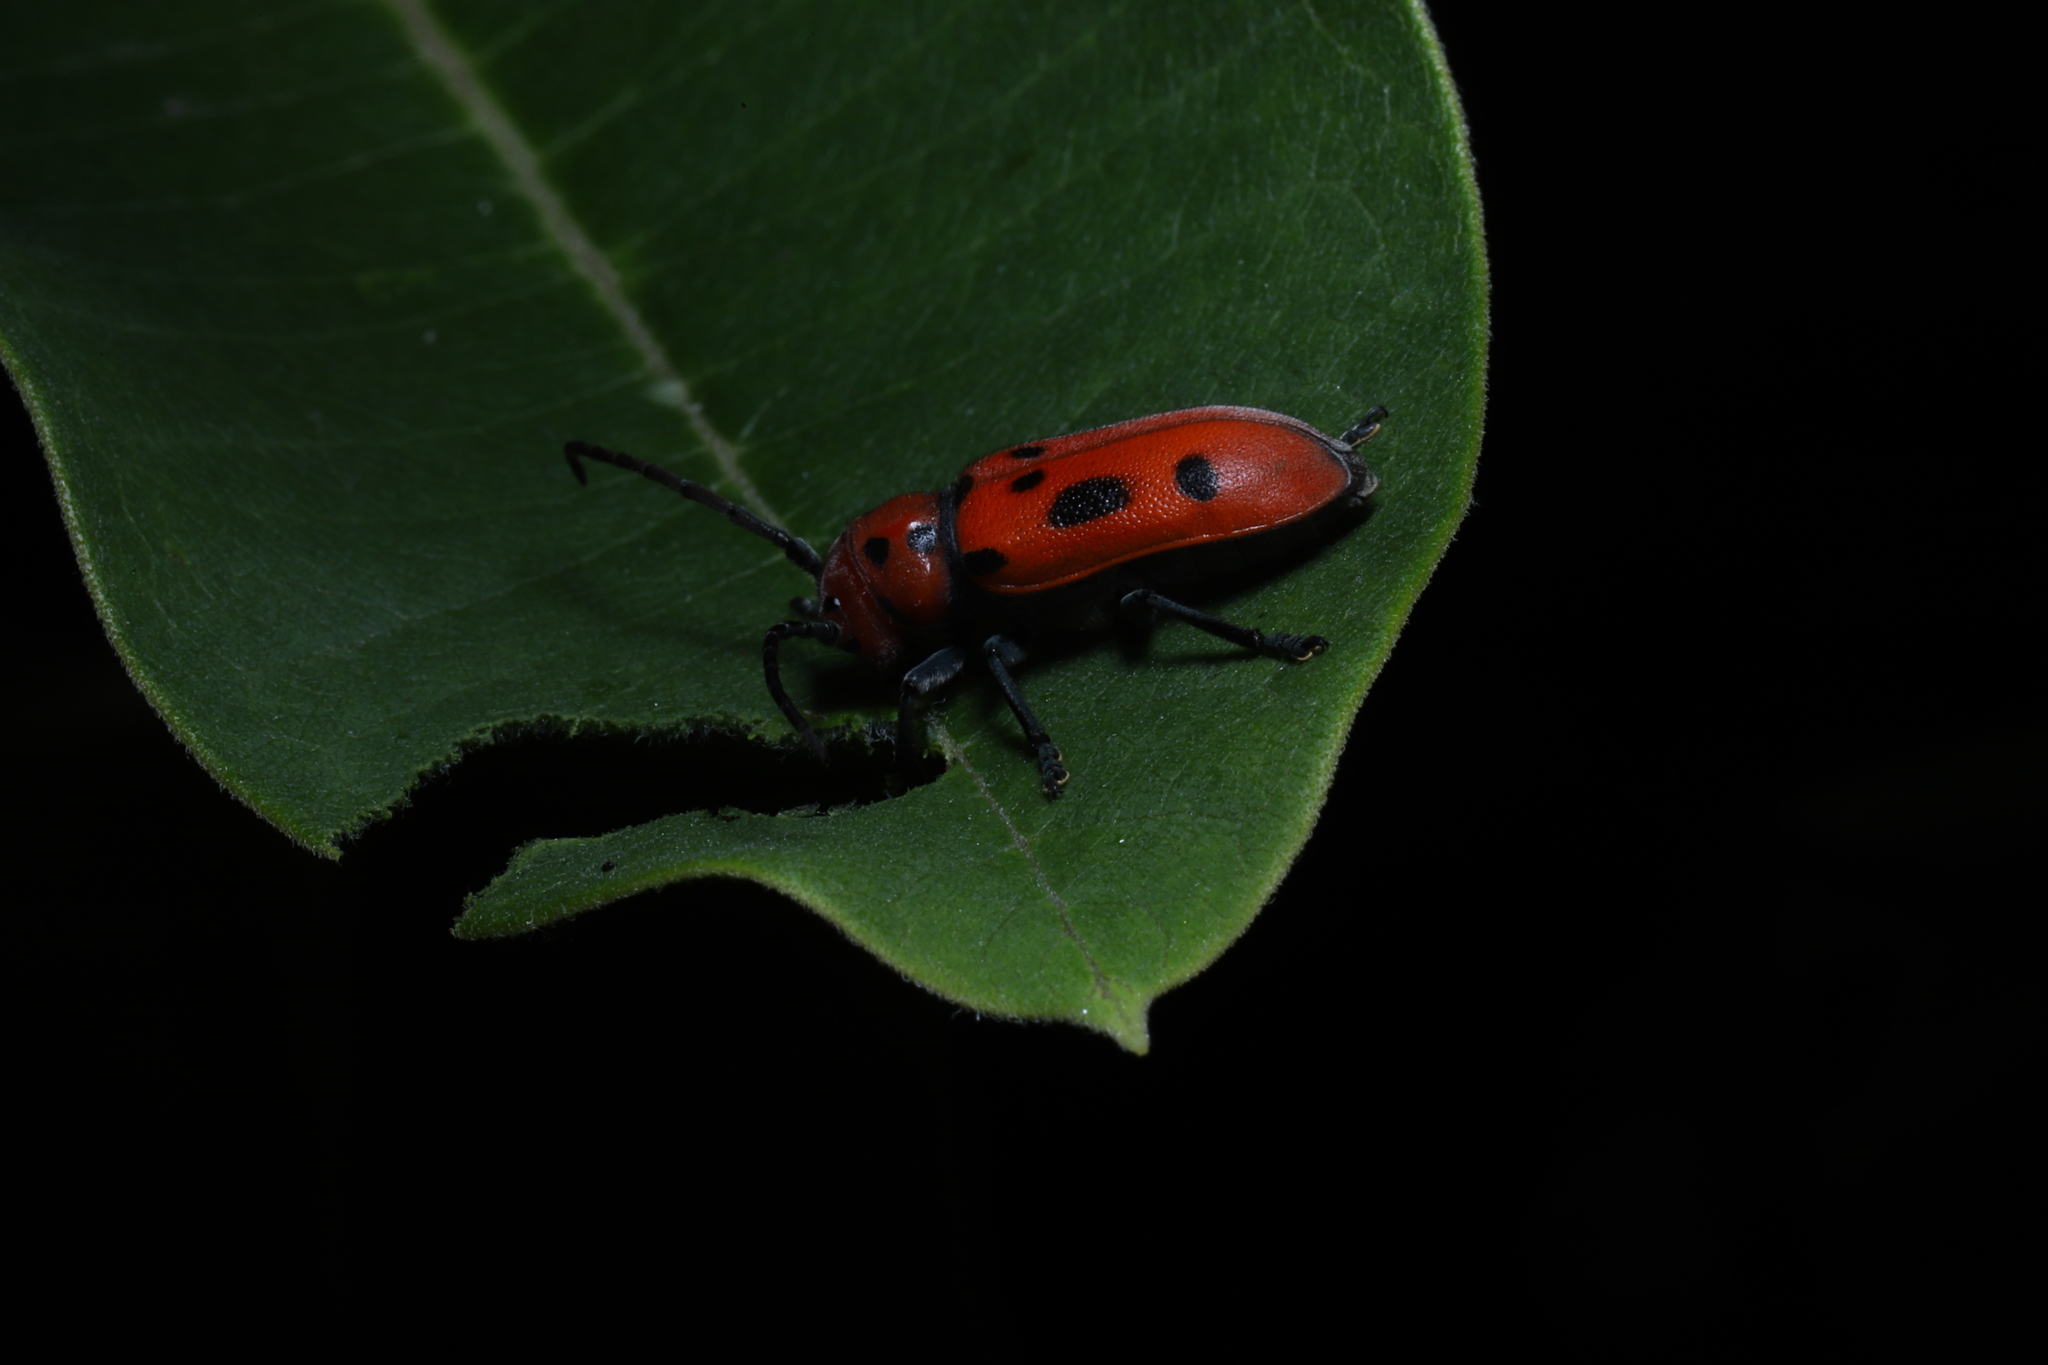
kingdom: Animalia
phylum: Arthropoda
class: Insecta
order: Coleoptera
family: Cerambycidae
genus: Tetraopes
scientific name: Tetraopes tetrophthalmus
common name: Red milkweed beetle
